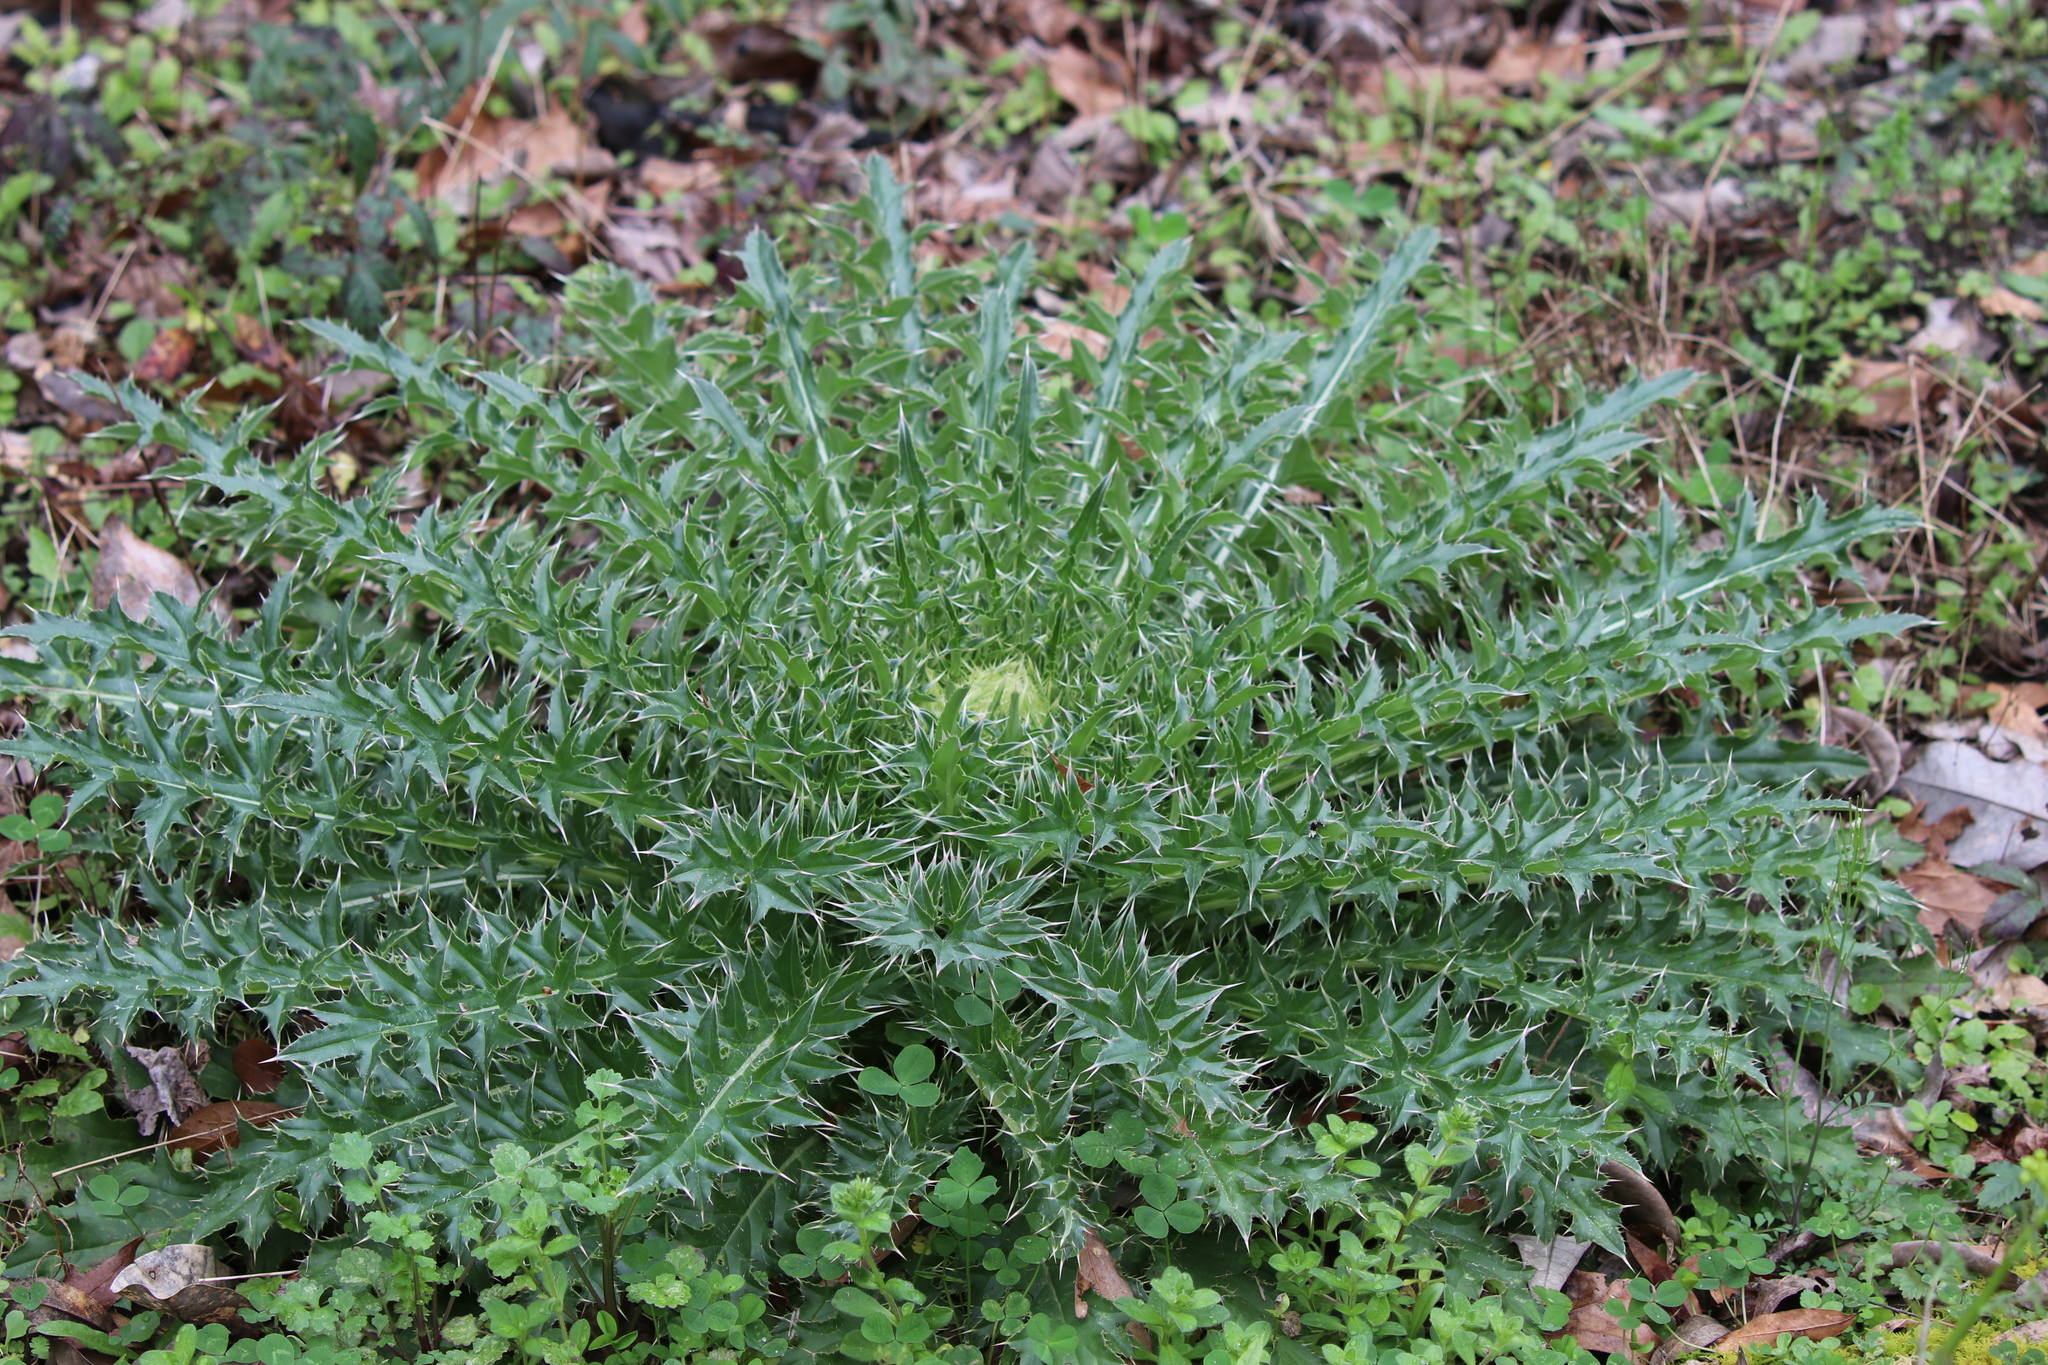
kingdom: Plantae
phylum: Tracheophyta
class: Magnoliopsida
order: Asterales
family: Asteraceae
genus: Cirsium
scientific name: Cirsium horridulum
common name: Bristly thistle
